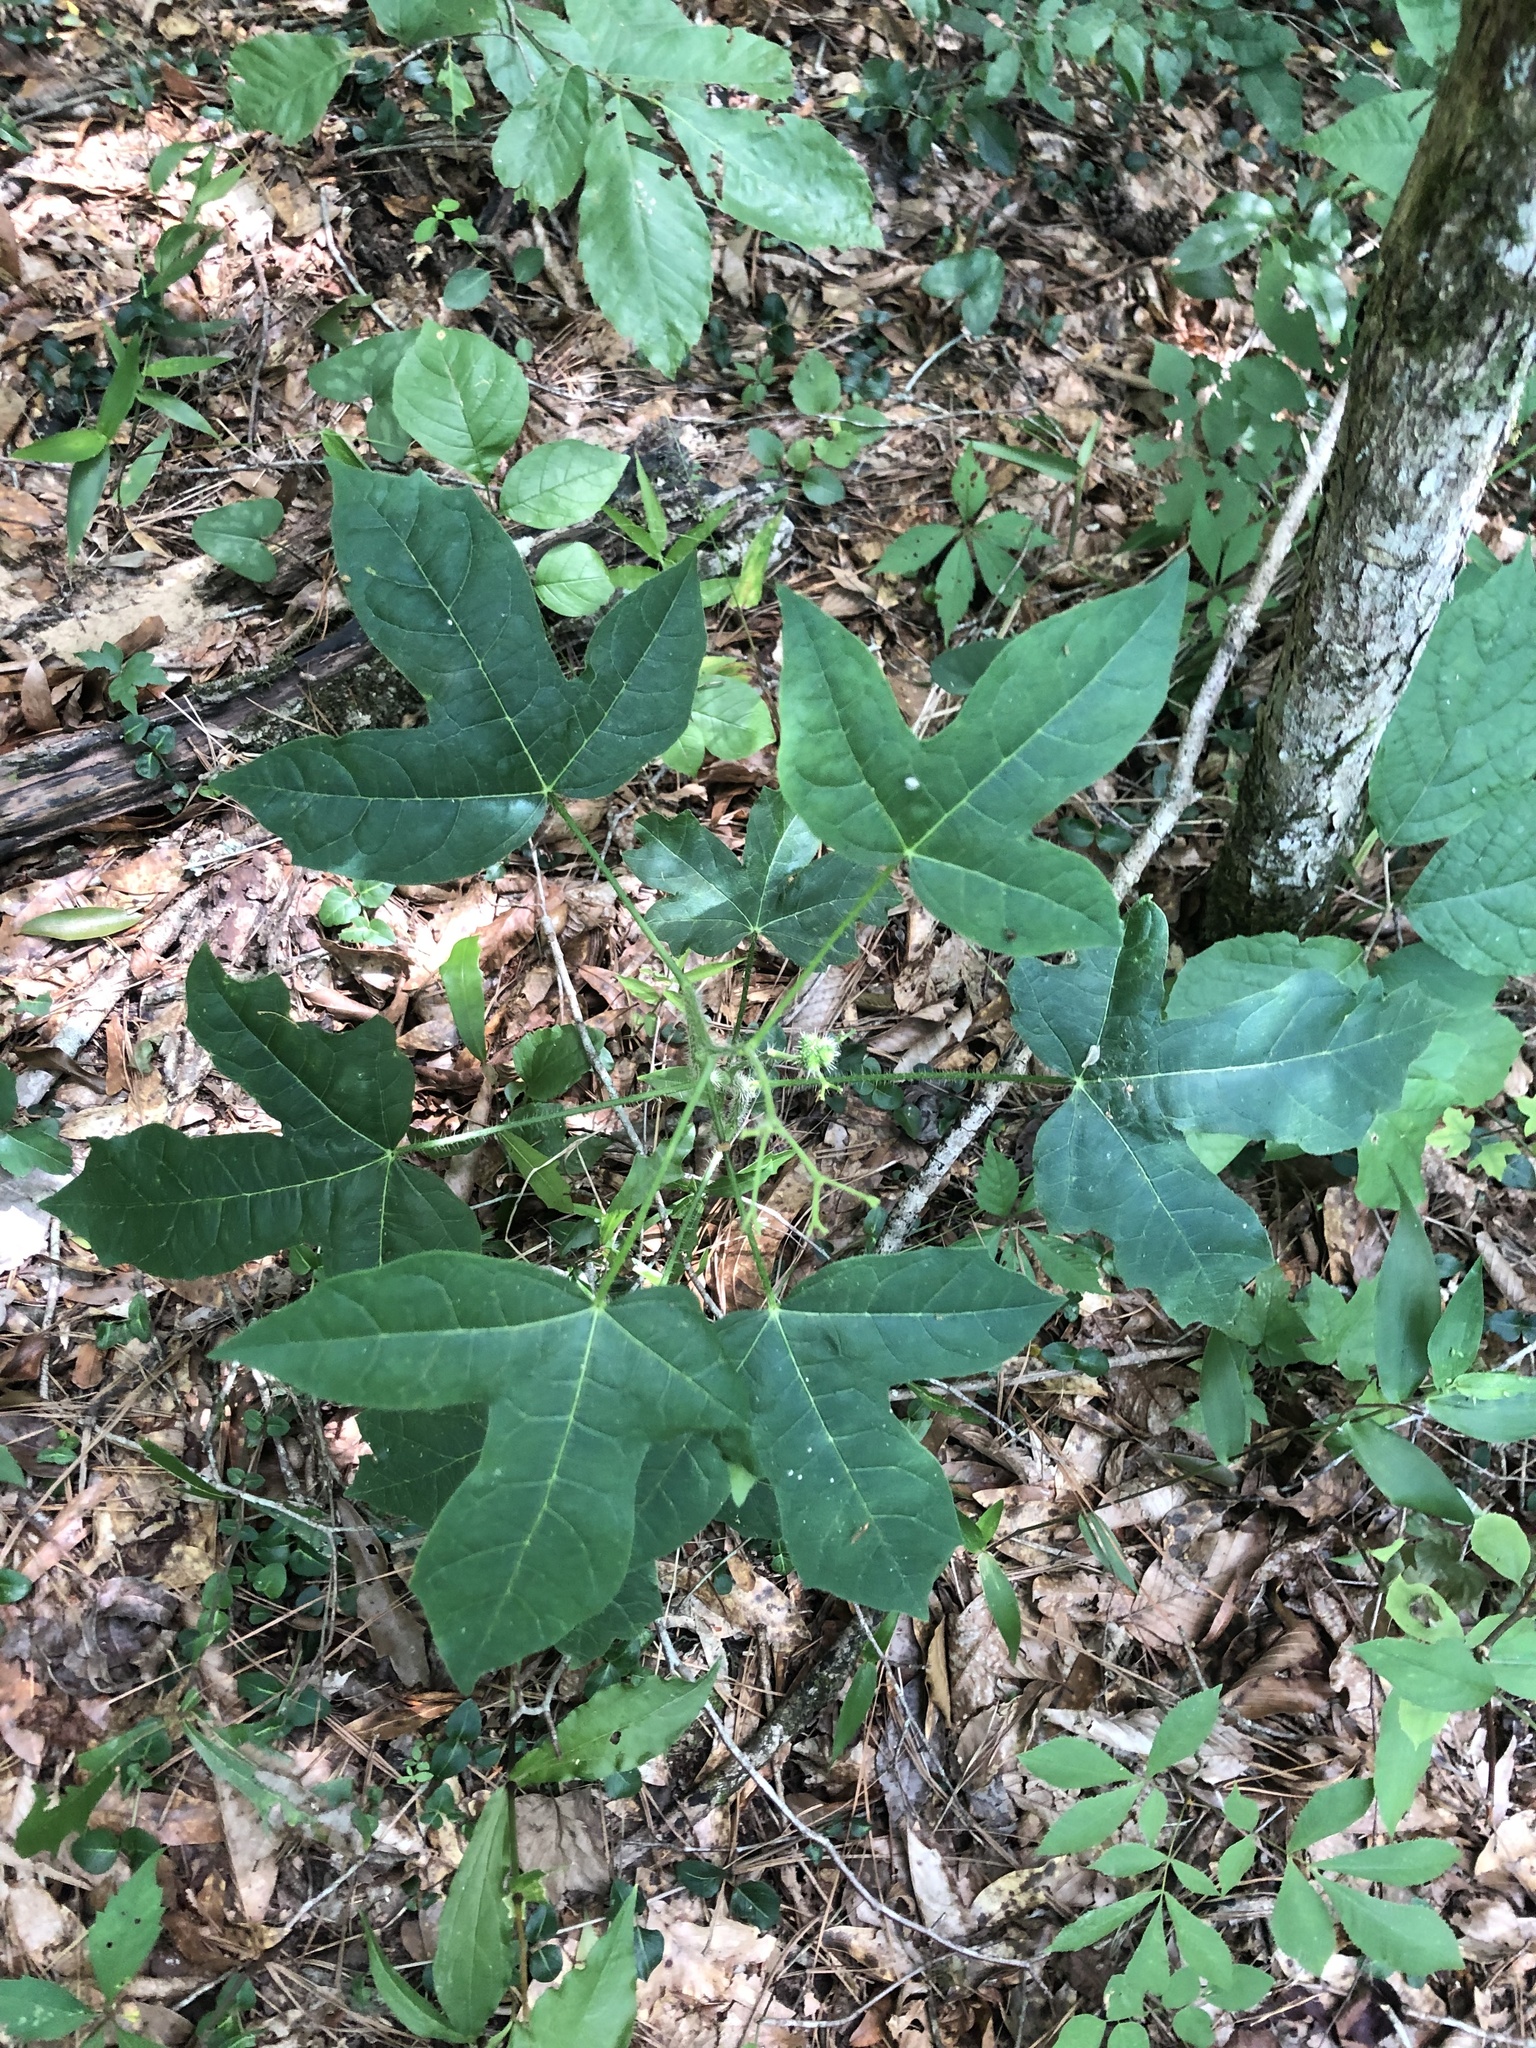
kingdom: Plantae
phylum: Tracheophyta
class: Magnoliopsida
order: Malpighiales
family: Euphorbiaceae
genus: Cnidoscolus
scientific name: Cnidoscolus stimulosus
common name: Bull-nettle
